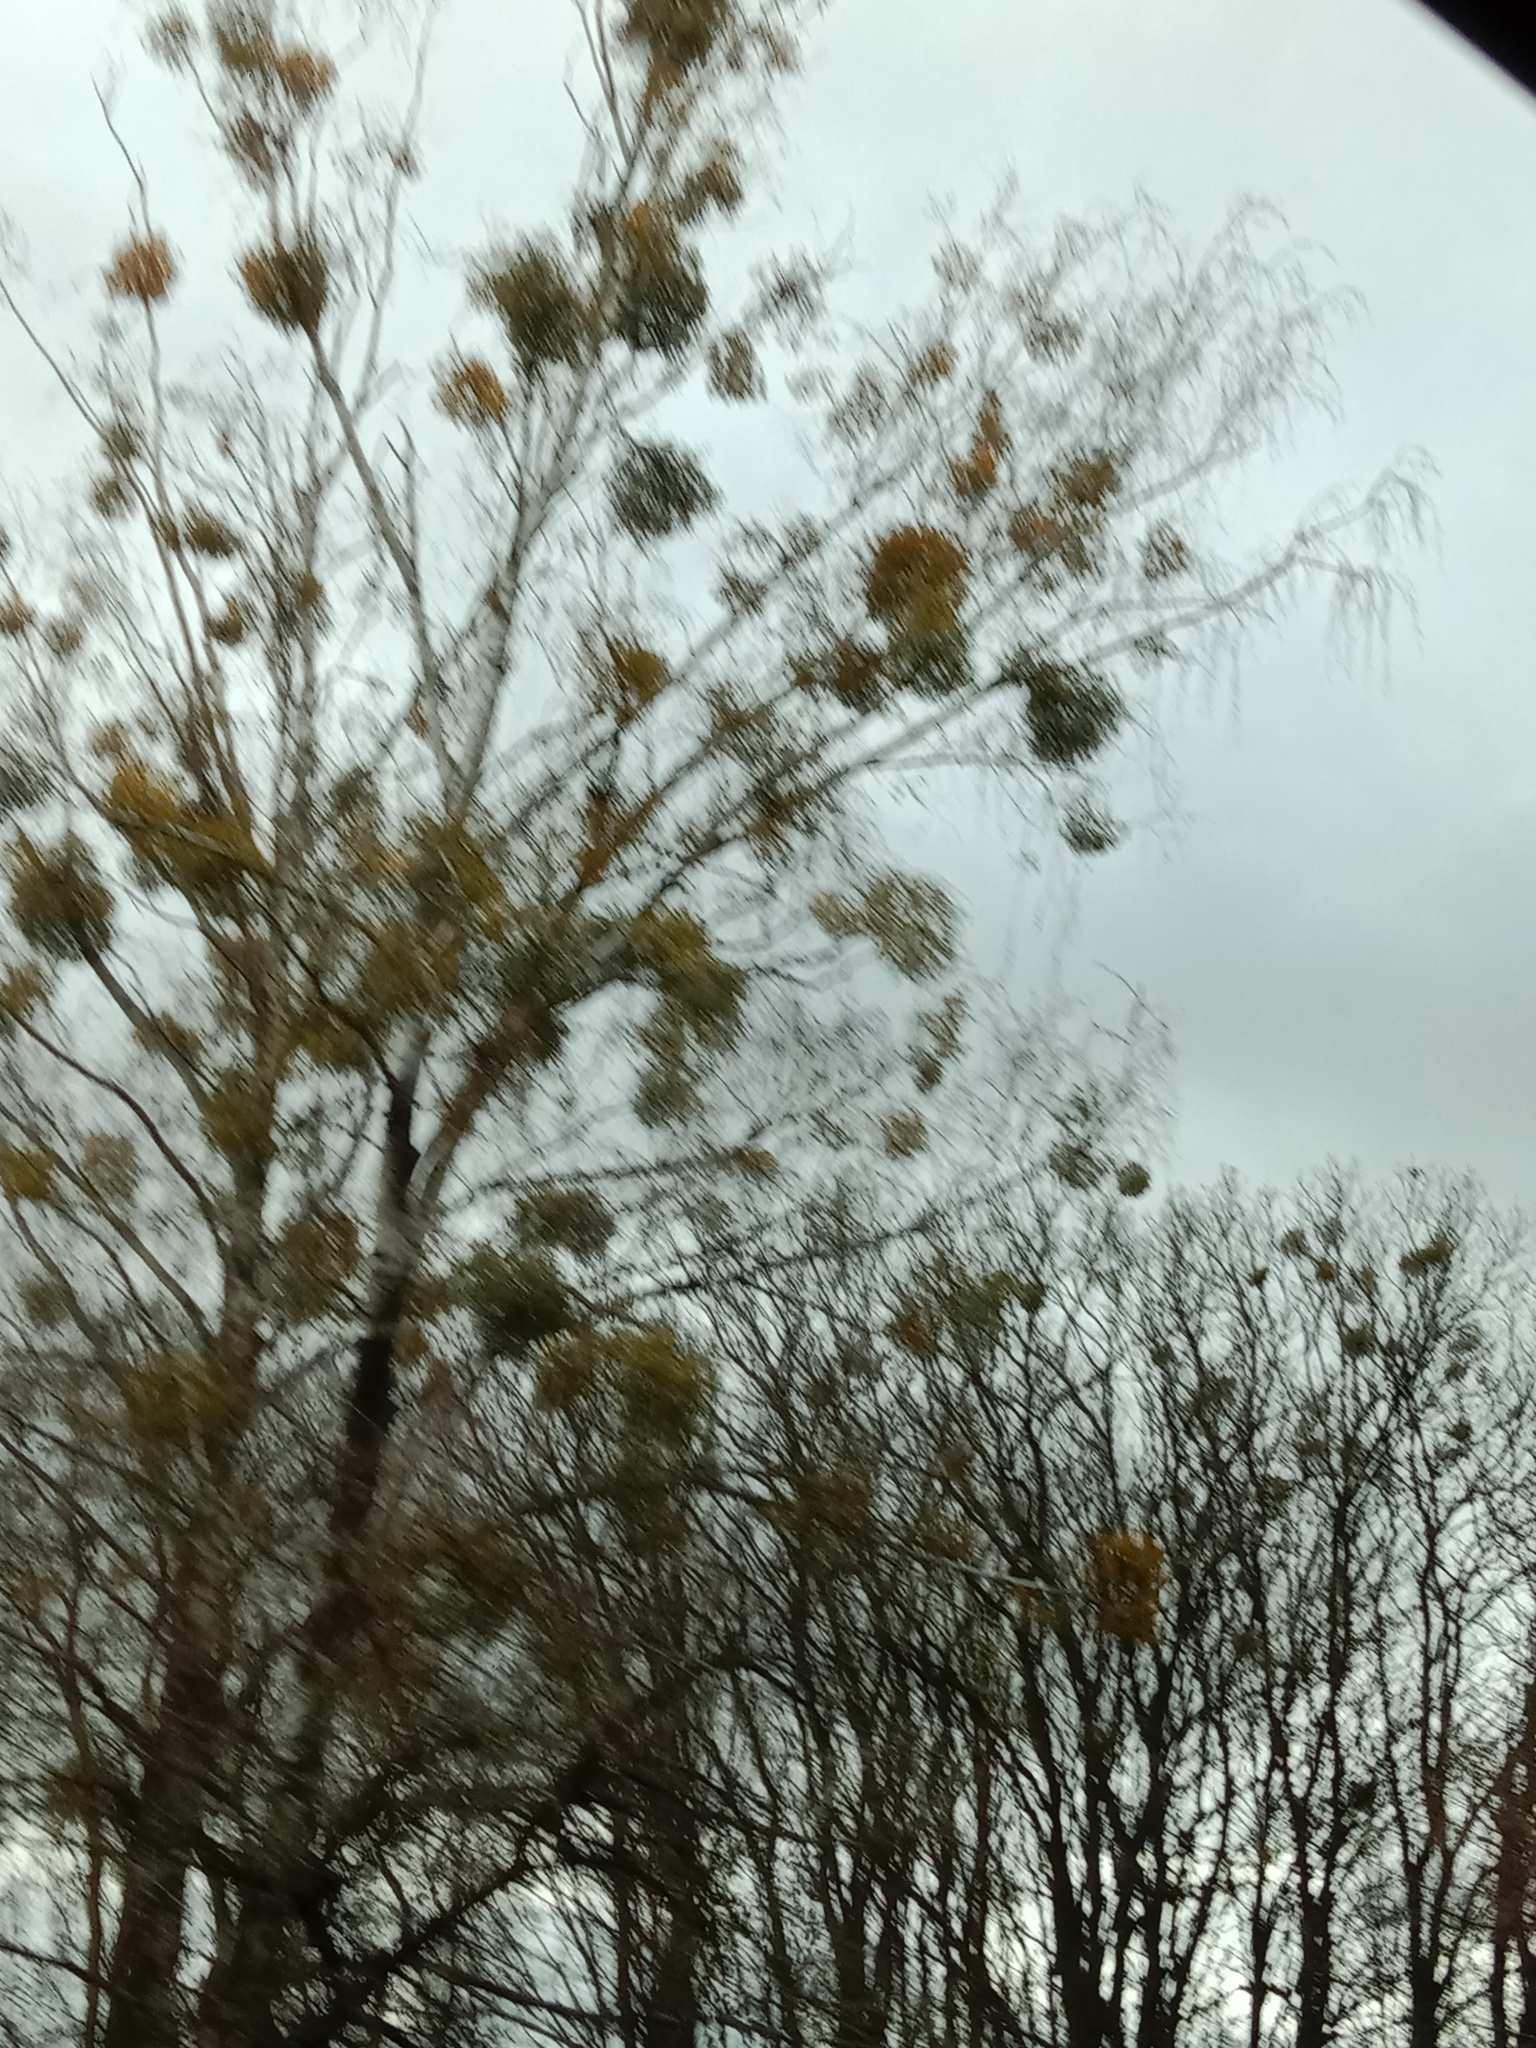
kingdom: Plantae
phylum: Tracheophyta
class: Magnoliopsida
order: Santalales
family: Viscaceae
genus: Viscum
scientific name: Viscum album
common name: Mistletoe
